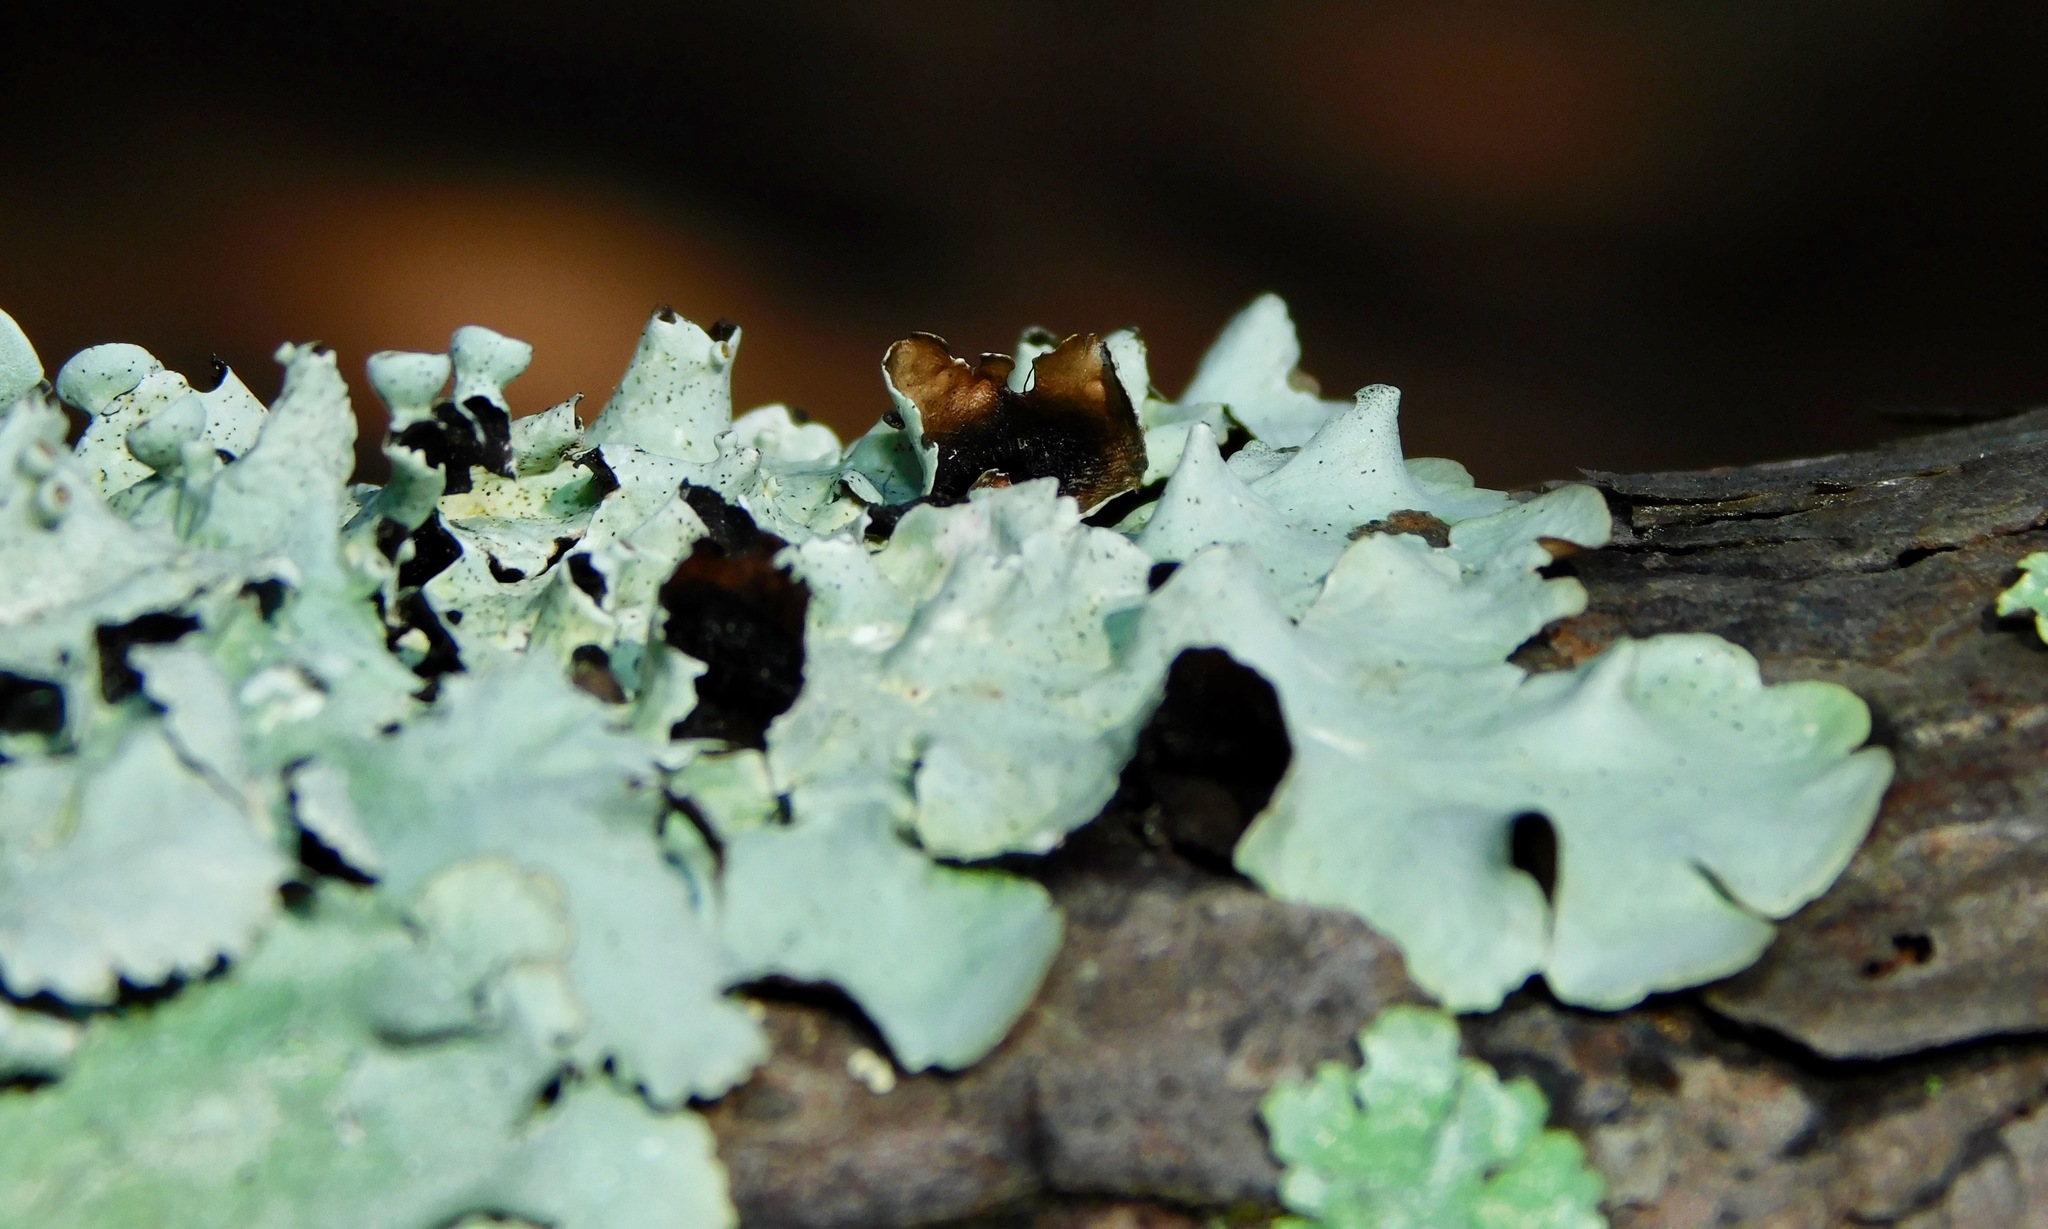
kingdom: Fungi
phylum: Ascomycota
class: Lecanoromycetes
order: Lecanorales
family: Parmeliaceae
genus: Parmotrema
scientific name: Parmotrema submarginale
